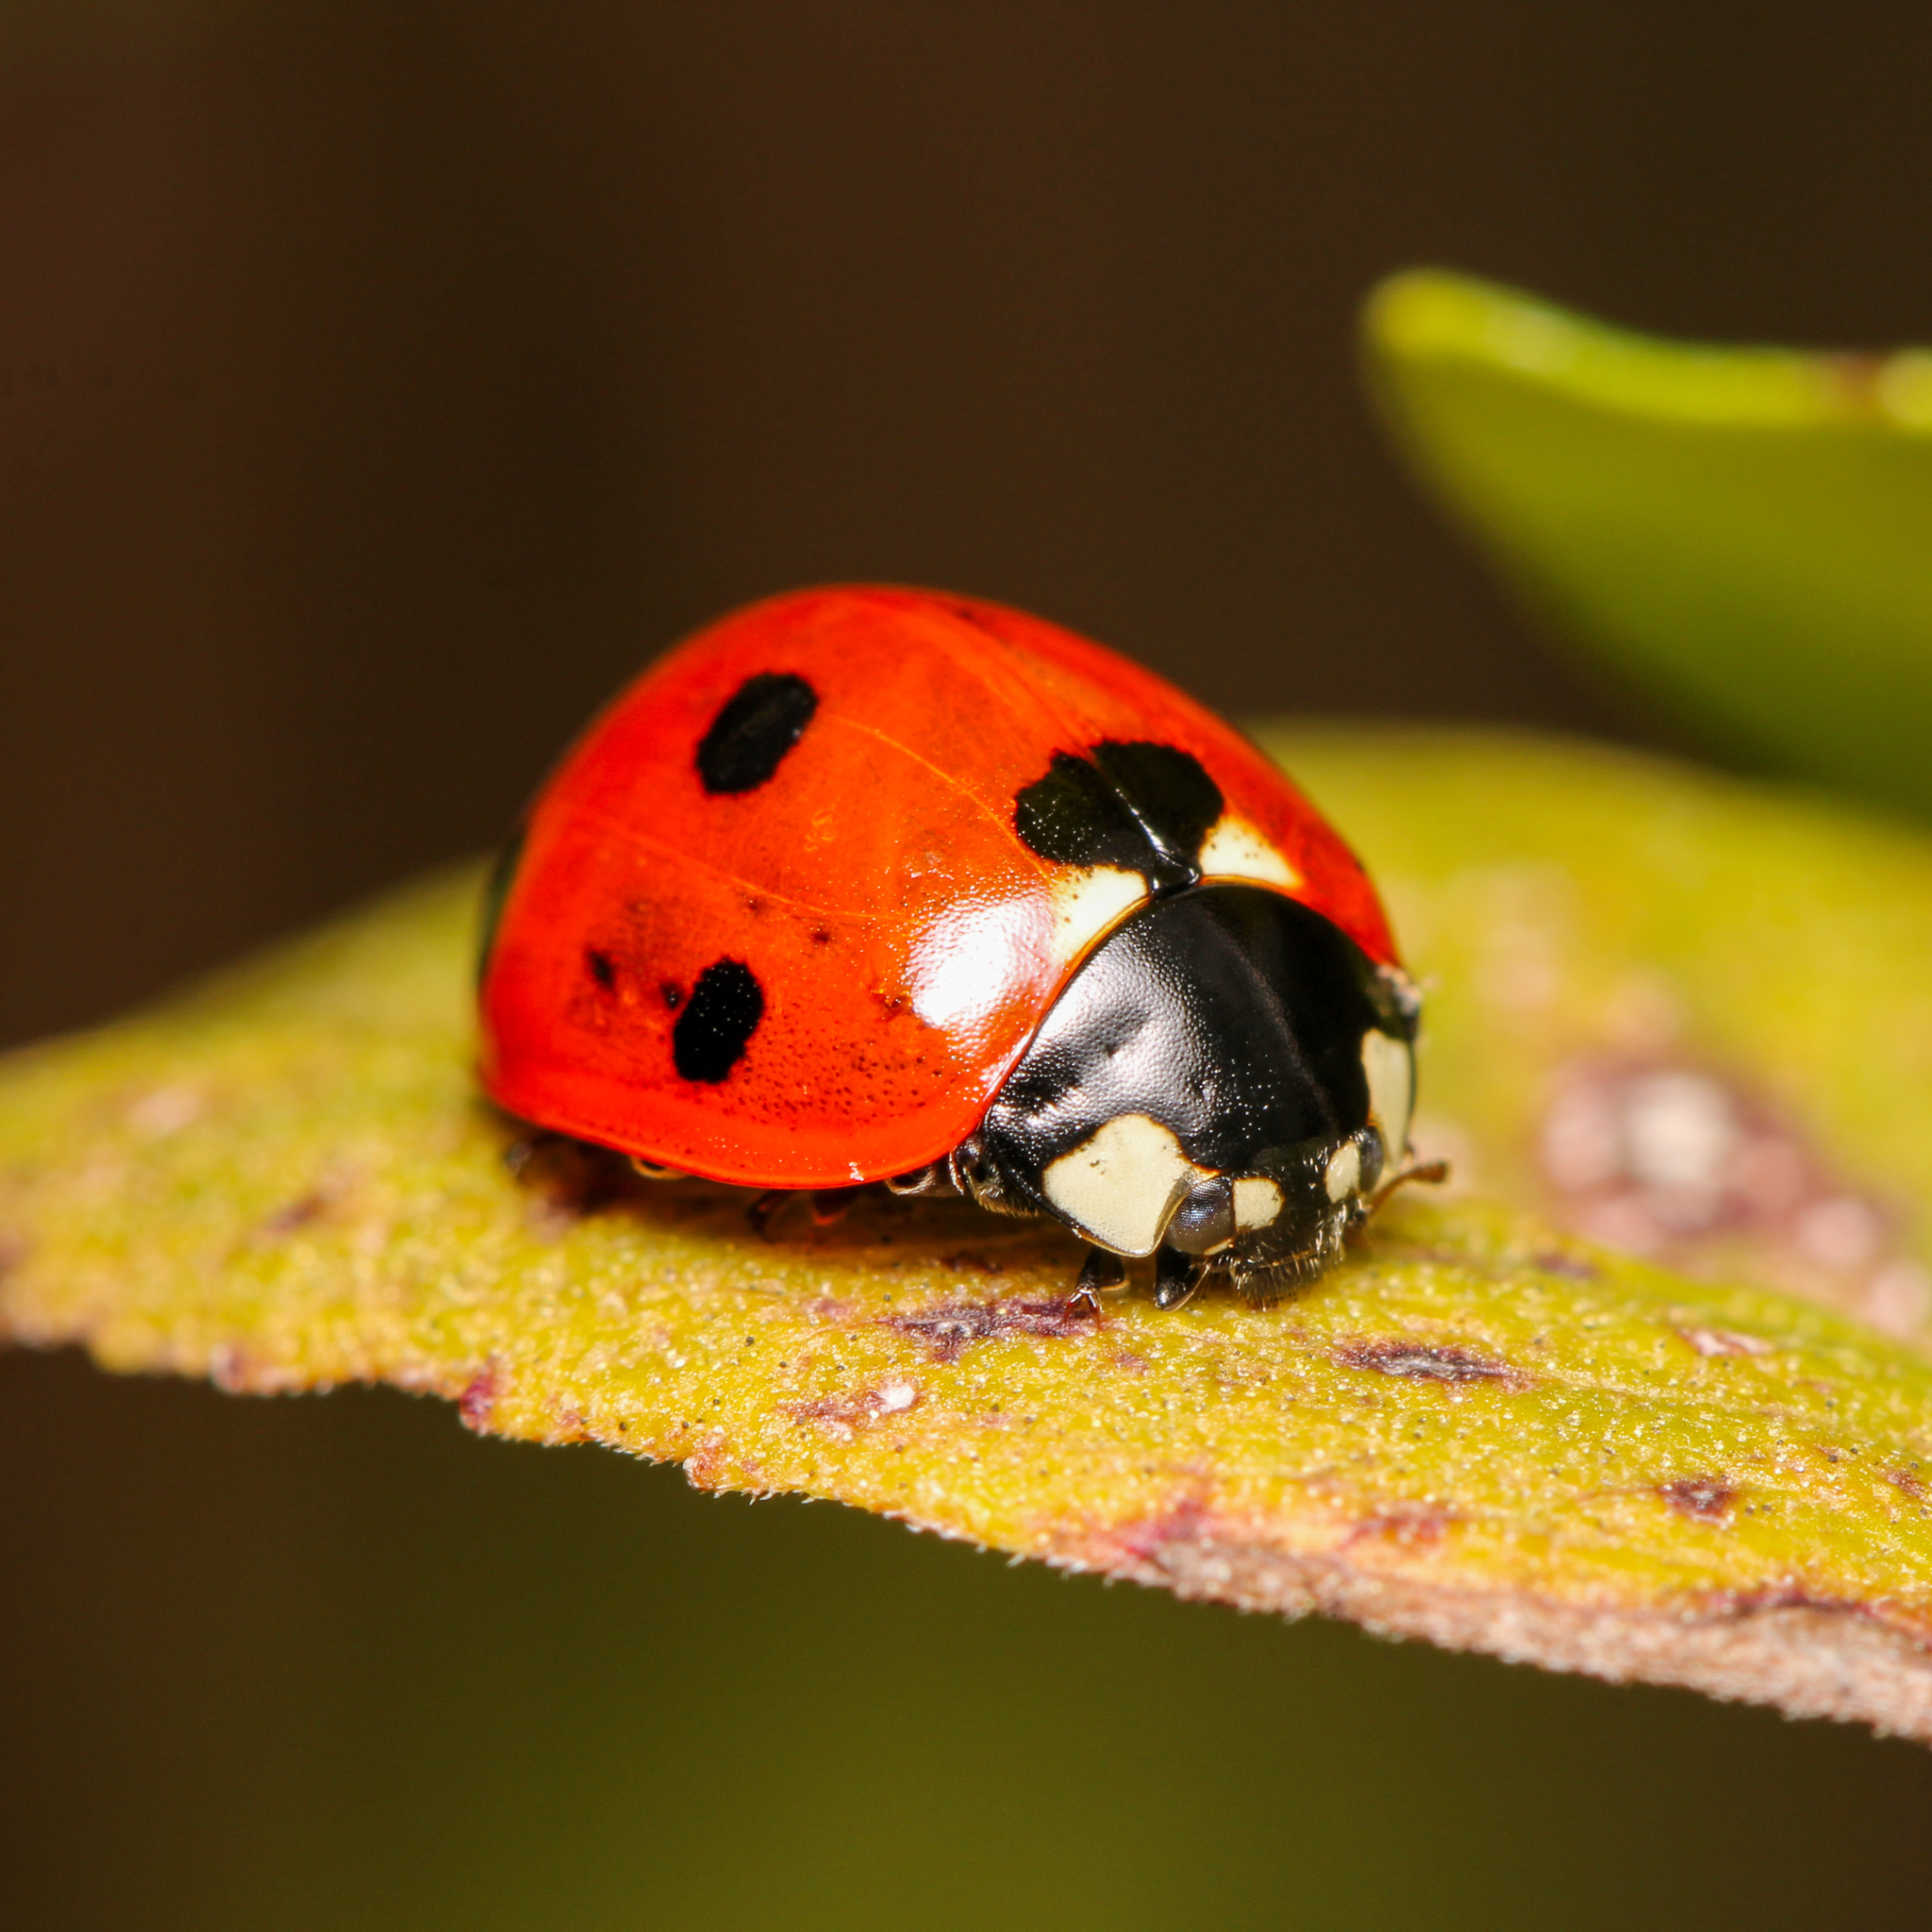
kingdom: Animalia
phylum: Arthropoda
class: Insecta
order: Coleoptera
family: Coccinellidae
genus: Coccinella
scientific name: Coccinella septempunctata
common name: Sevenspotted lady beetle
